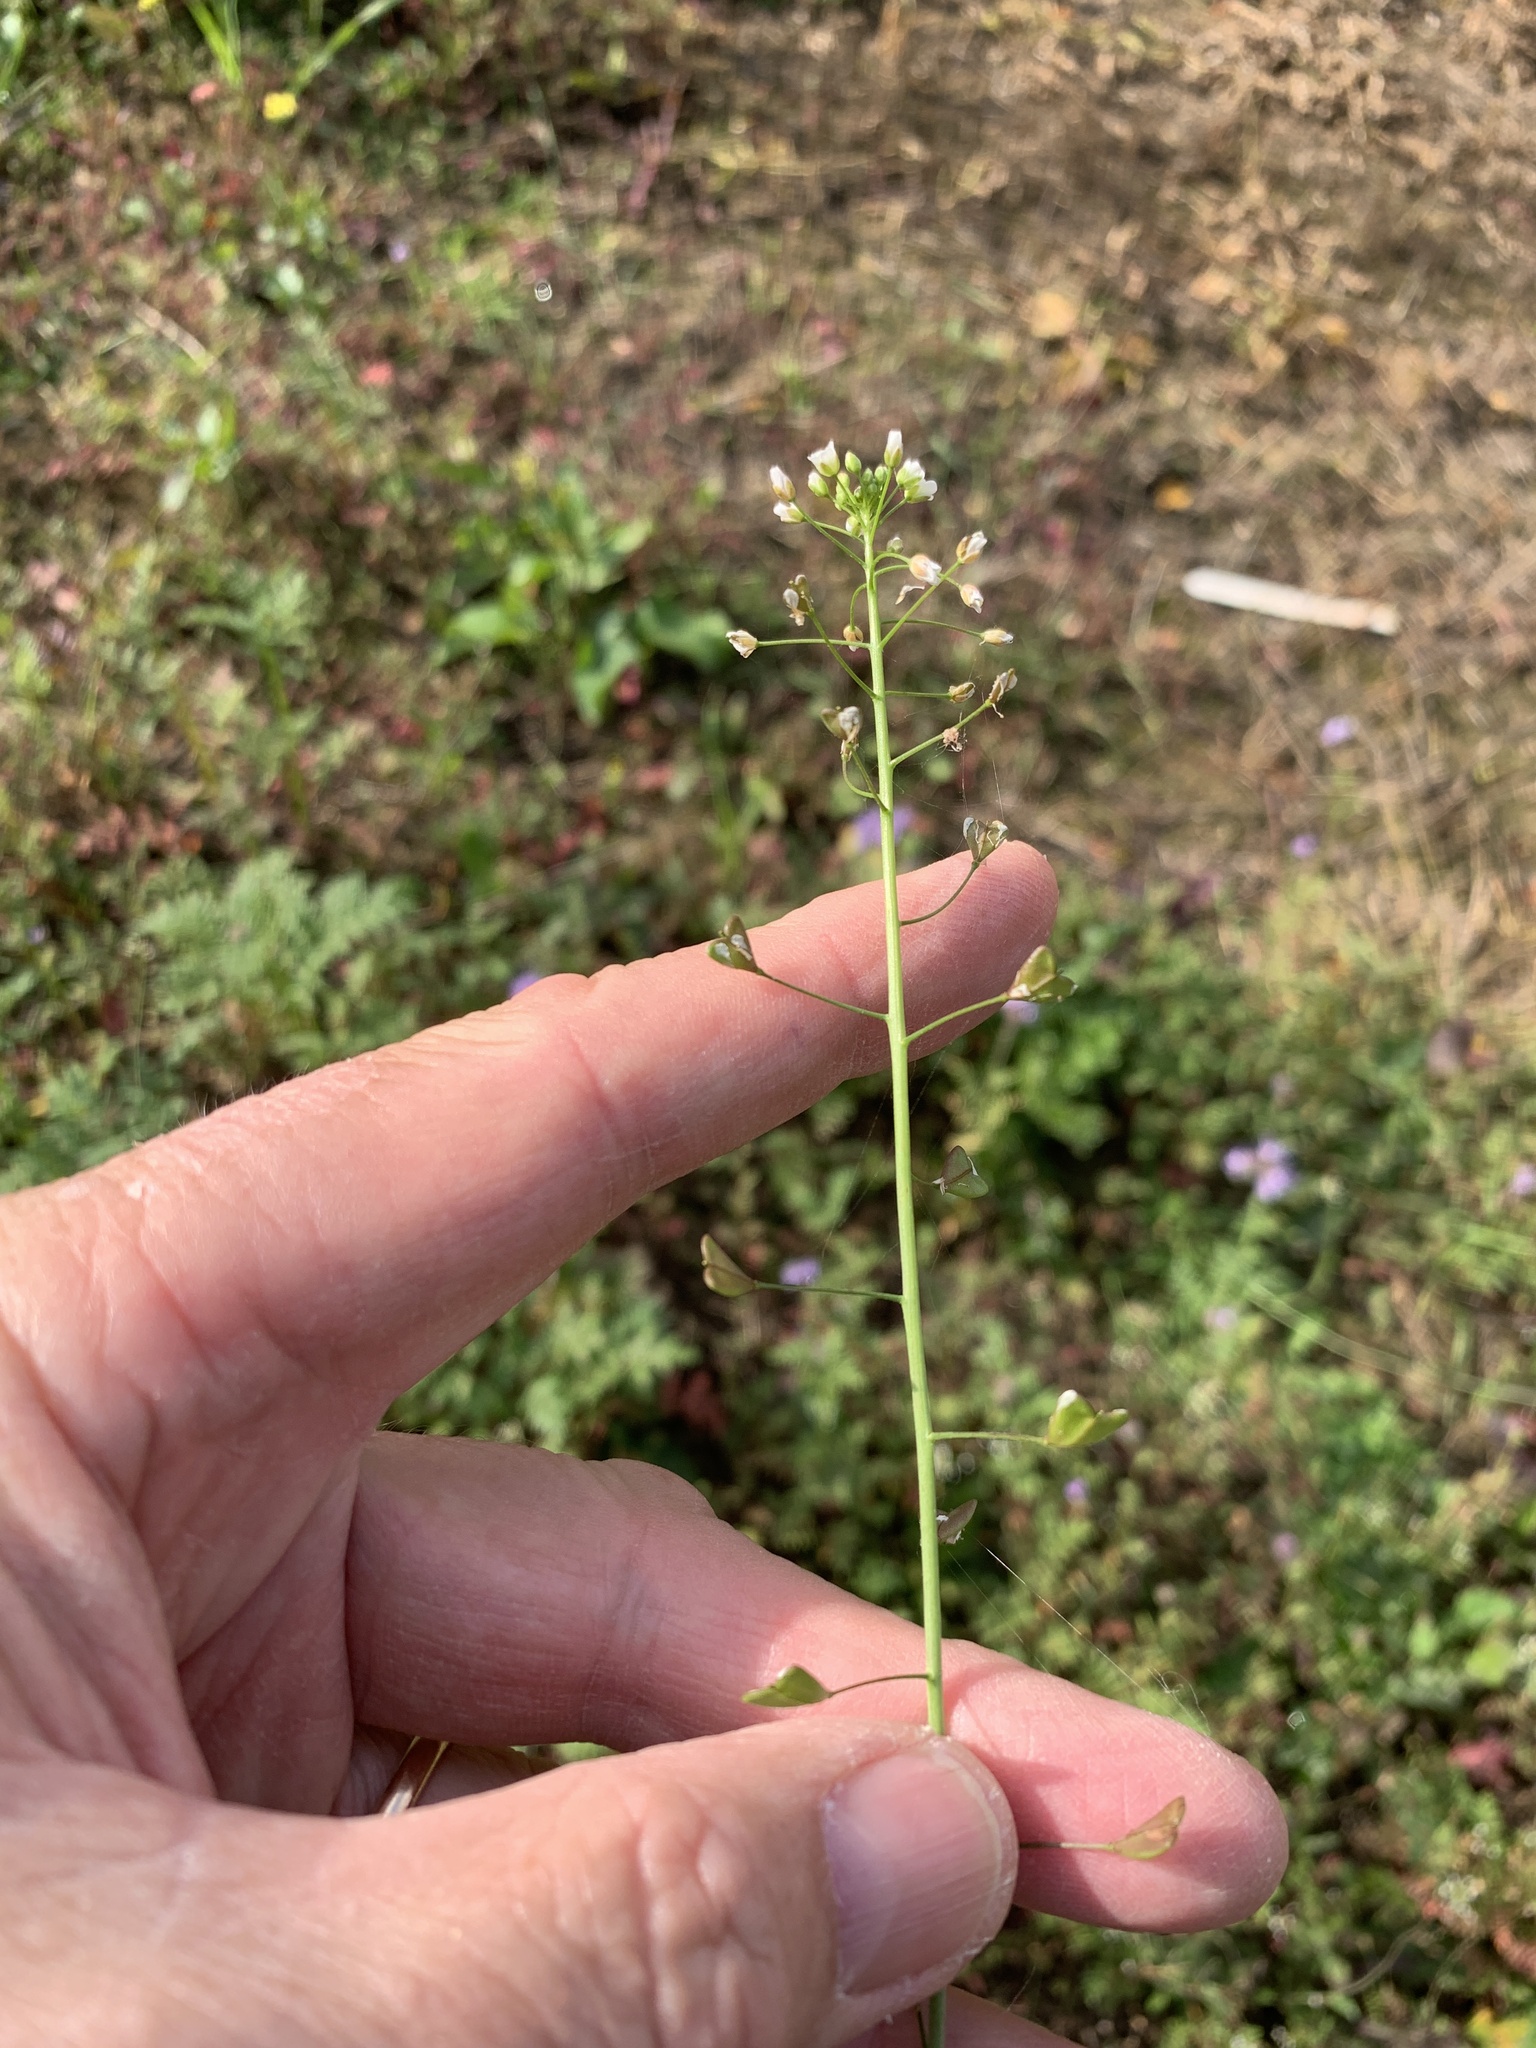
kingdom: Plantae
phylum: Tracheophyta
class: Magnoliopsida
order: Brassicales
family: Brassicaceae
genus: Capsella
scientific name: Capsella bursa-pastoris
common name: Shepherd's purse
